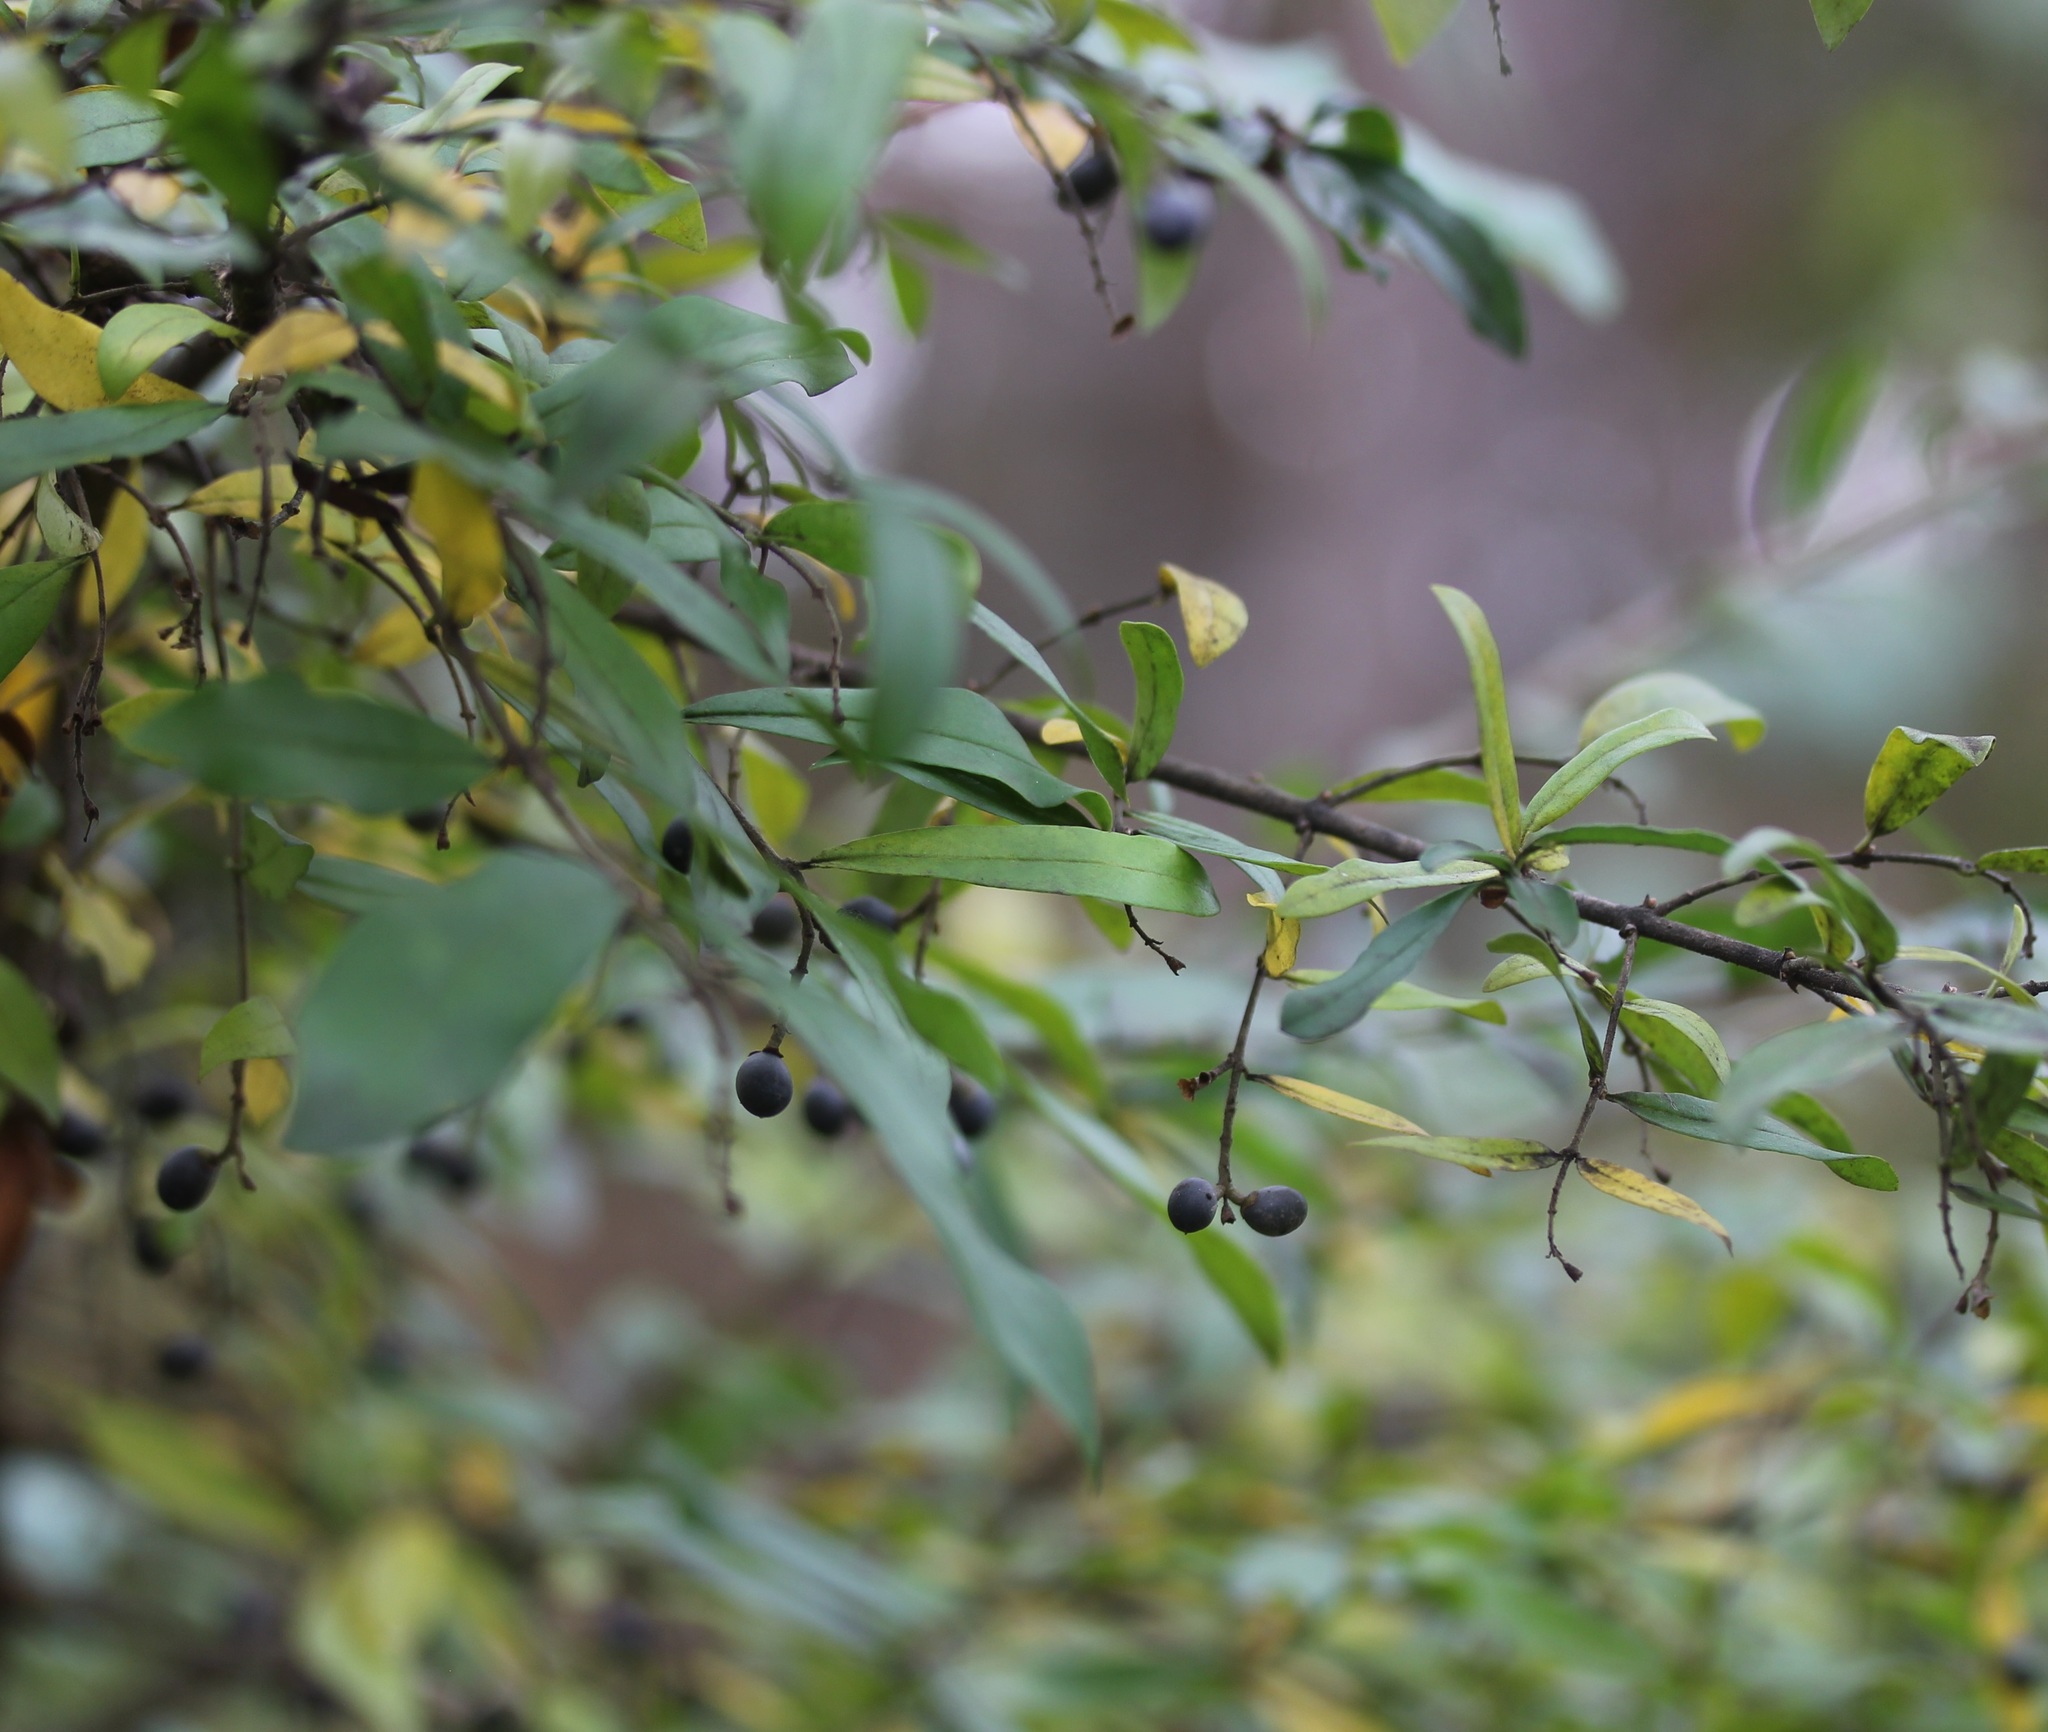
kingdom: Plantae
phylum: Tracheophyta
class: Magnoliopsida
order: Lamiales
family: Oleaceae
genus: Ligustrum
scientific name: Ligustrum obtusifolium
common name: Border privet
